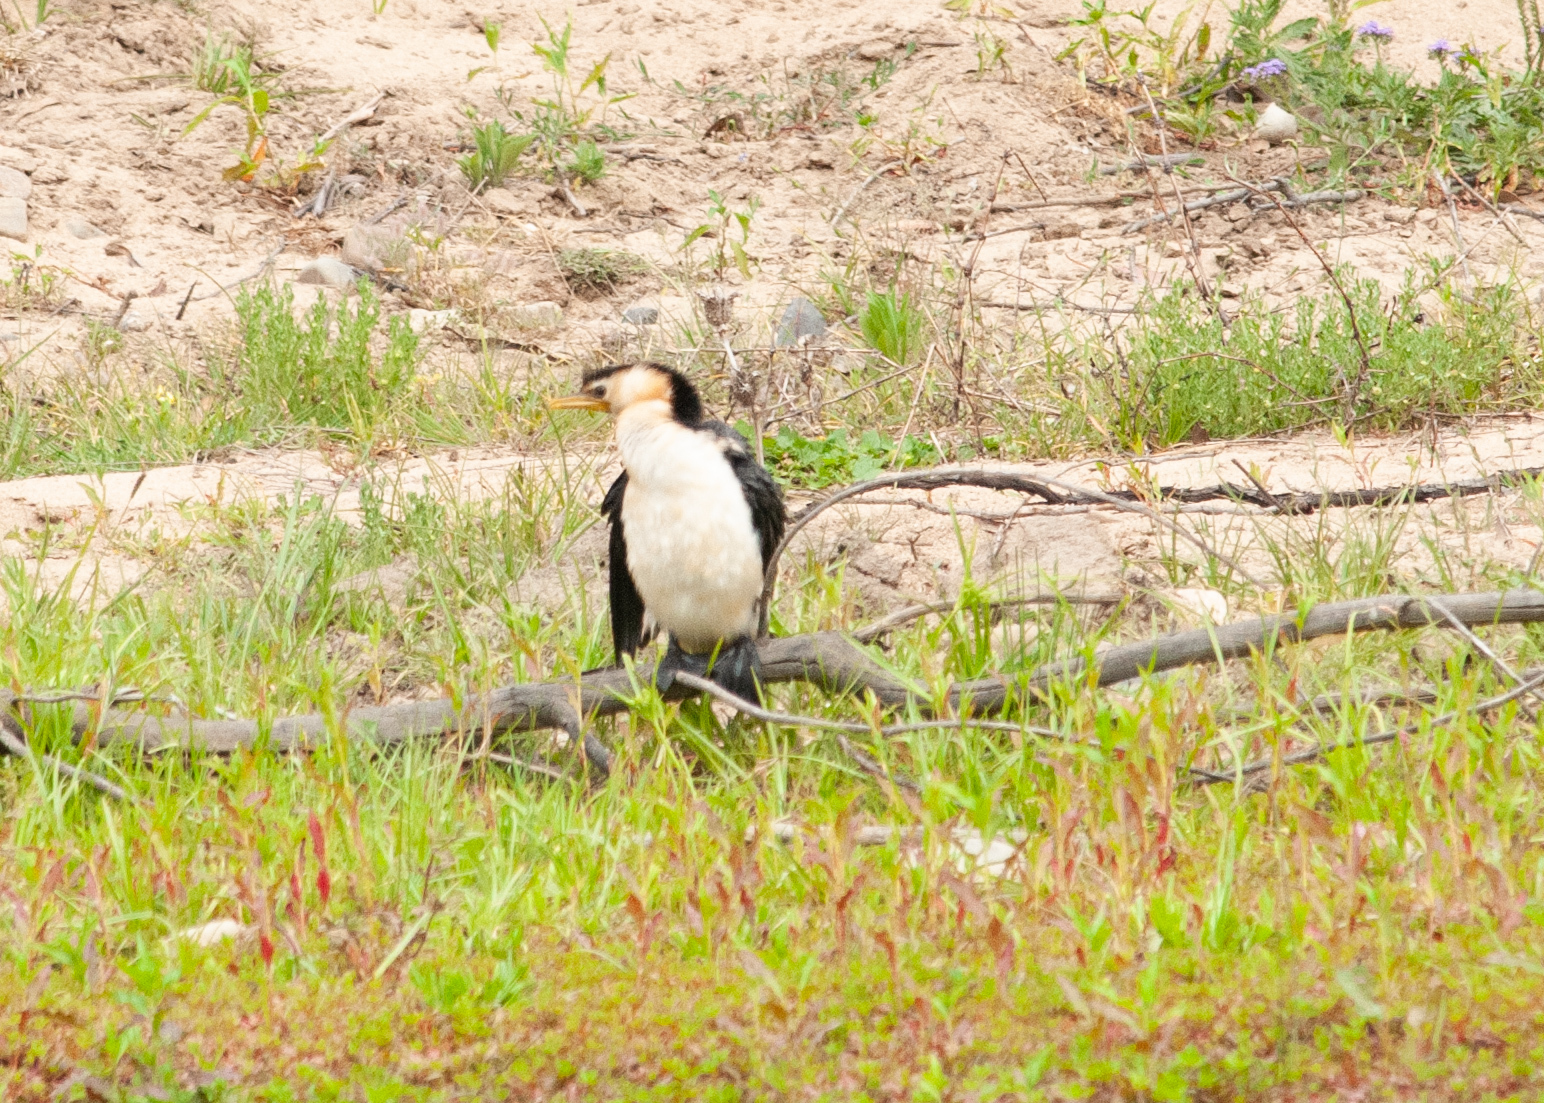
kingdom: Animalia
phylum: Chordata
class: Aves
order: Suliformes
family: Phalacrocoracidae
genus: Microcarbo
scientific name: Microcarbo melanoleucos
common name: Little pied cormorant
